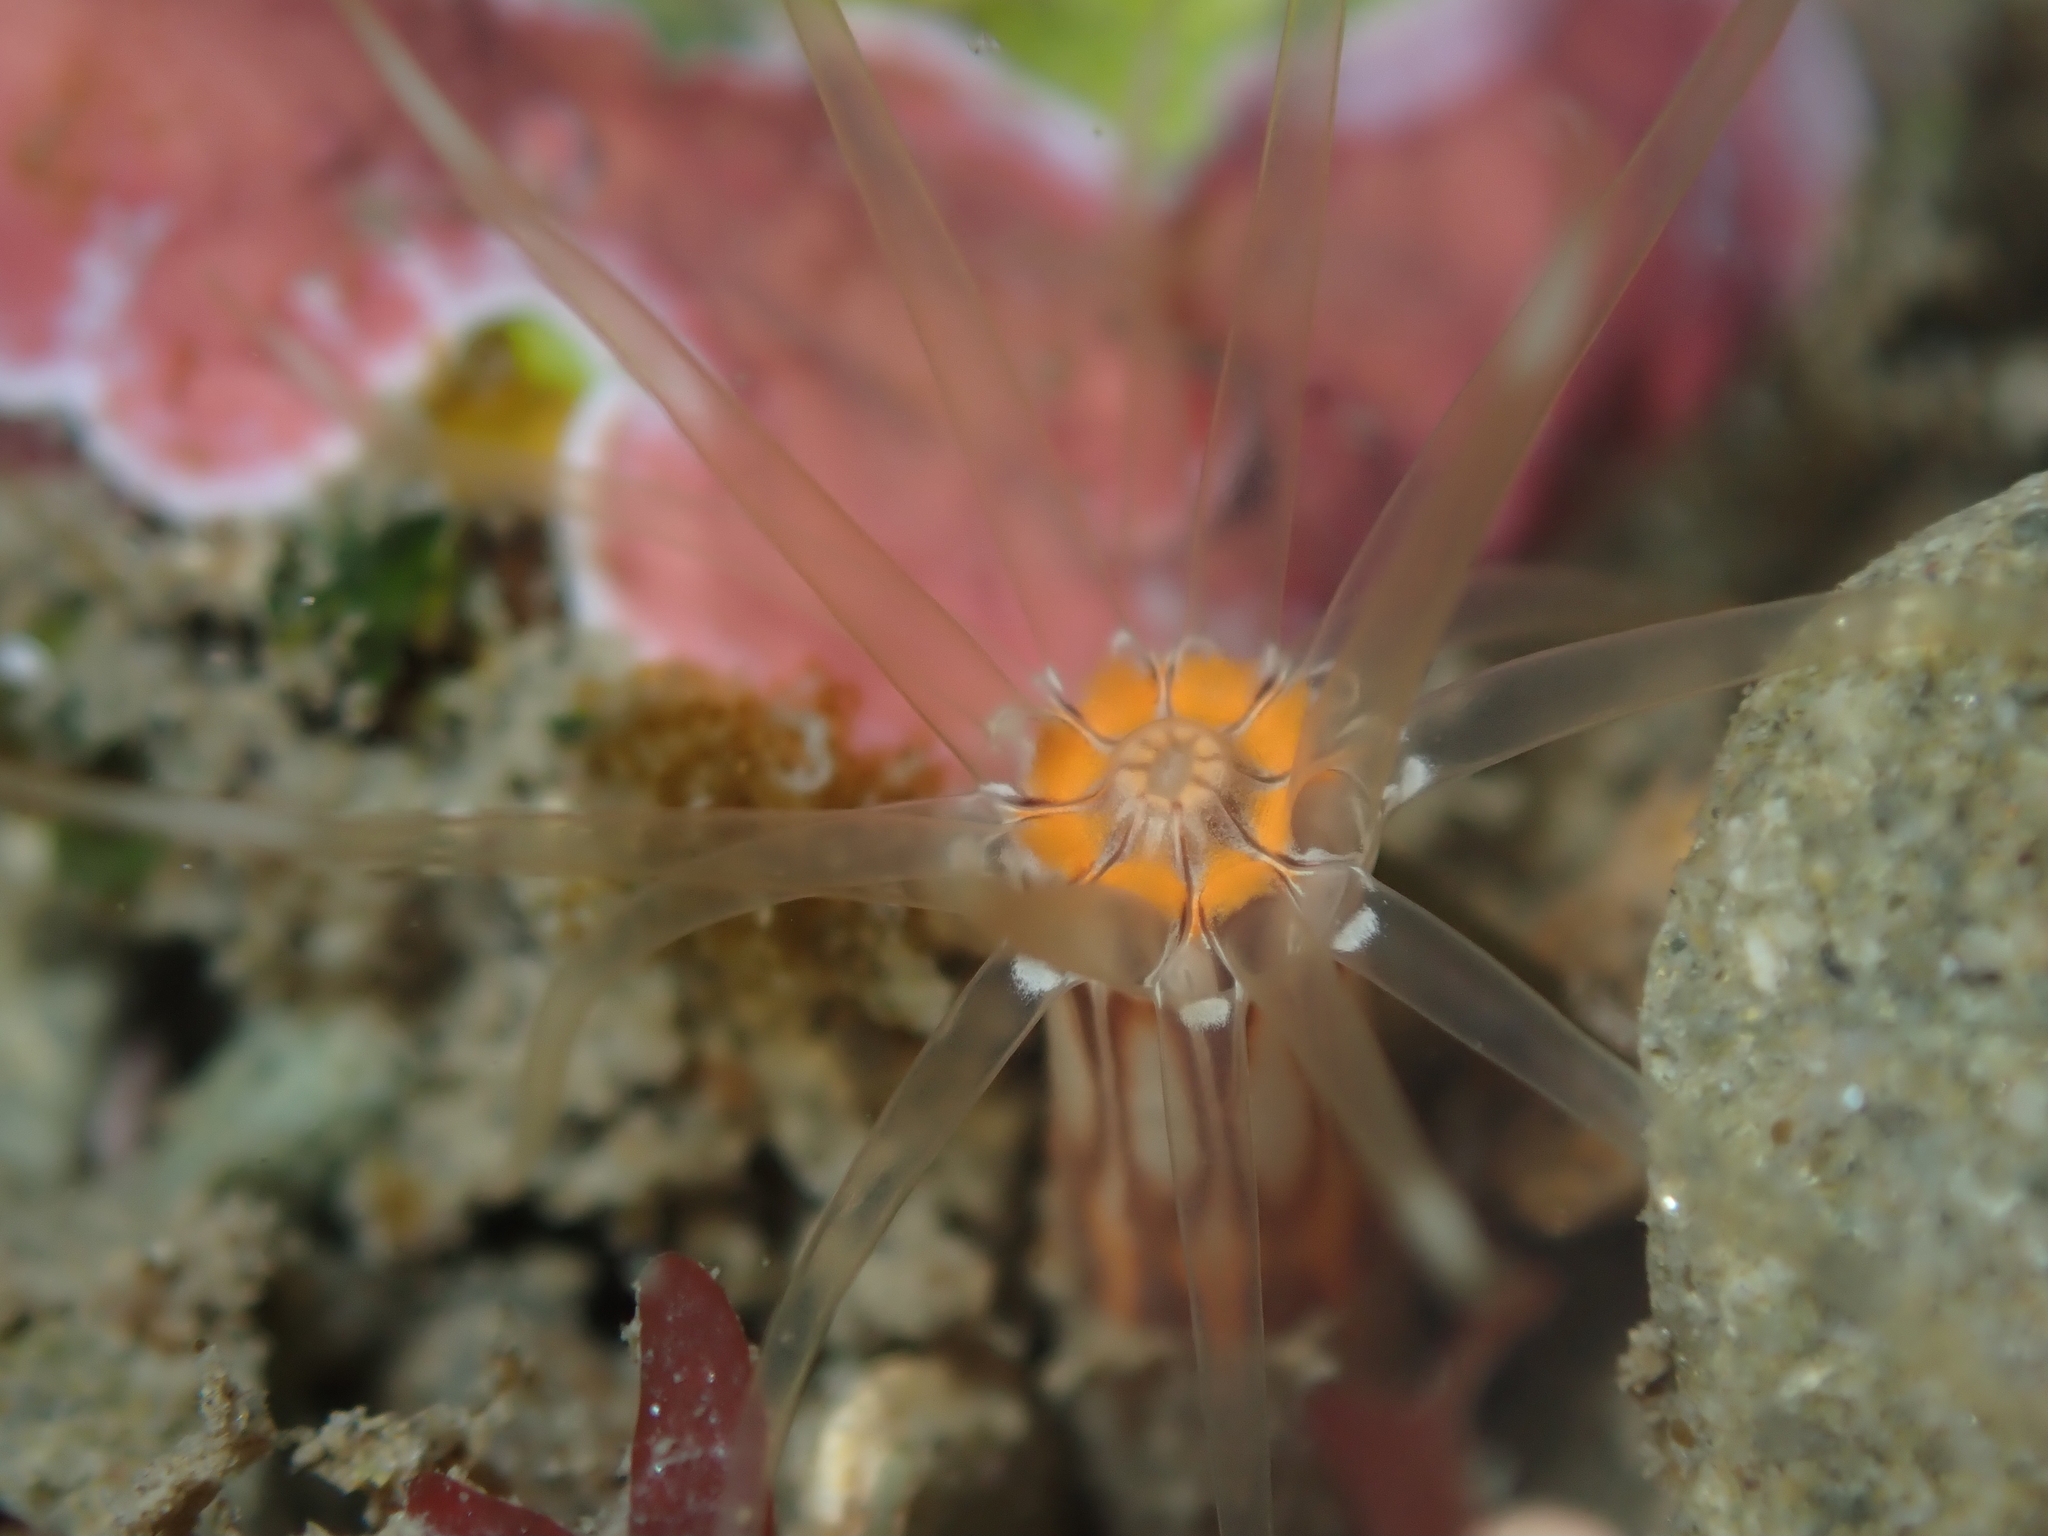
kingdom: Animalia
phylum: Cnidaria
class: Anthozoa
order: Actiniaria
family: Edwardsiidae
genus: Edwardsia
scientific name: Edwardsia neozelanica
